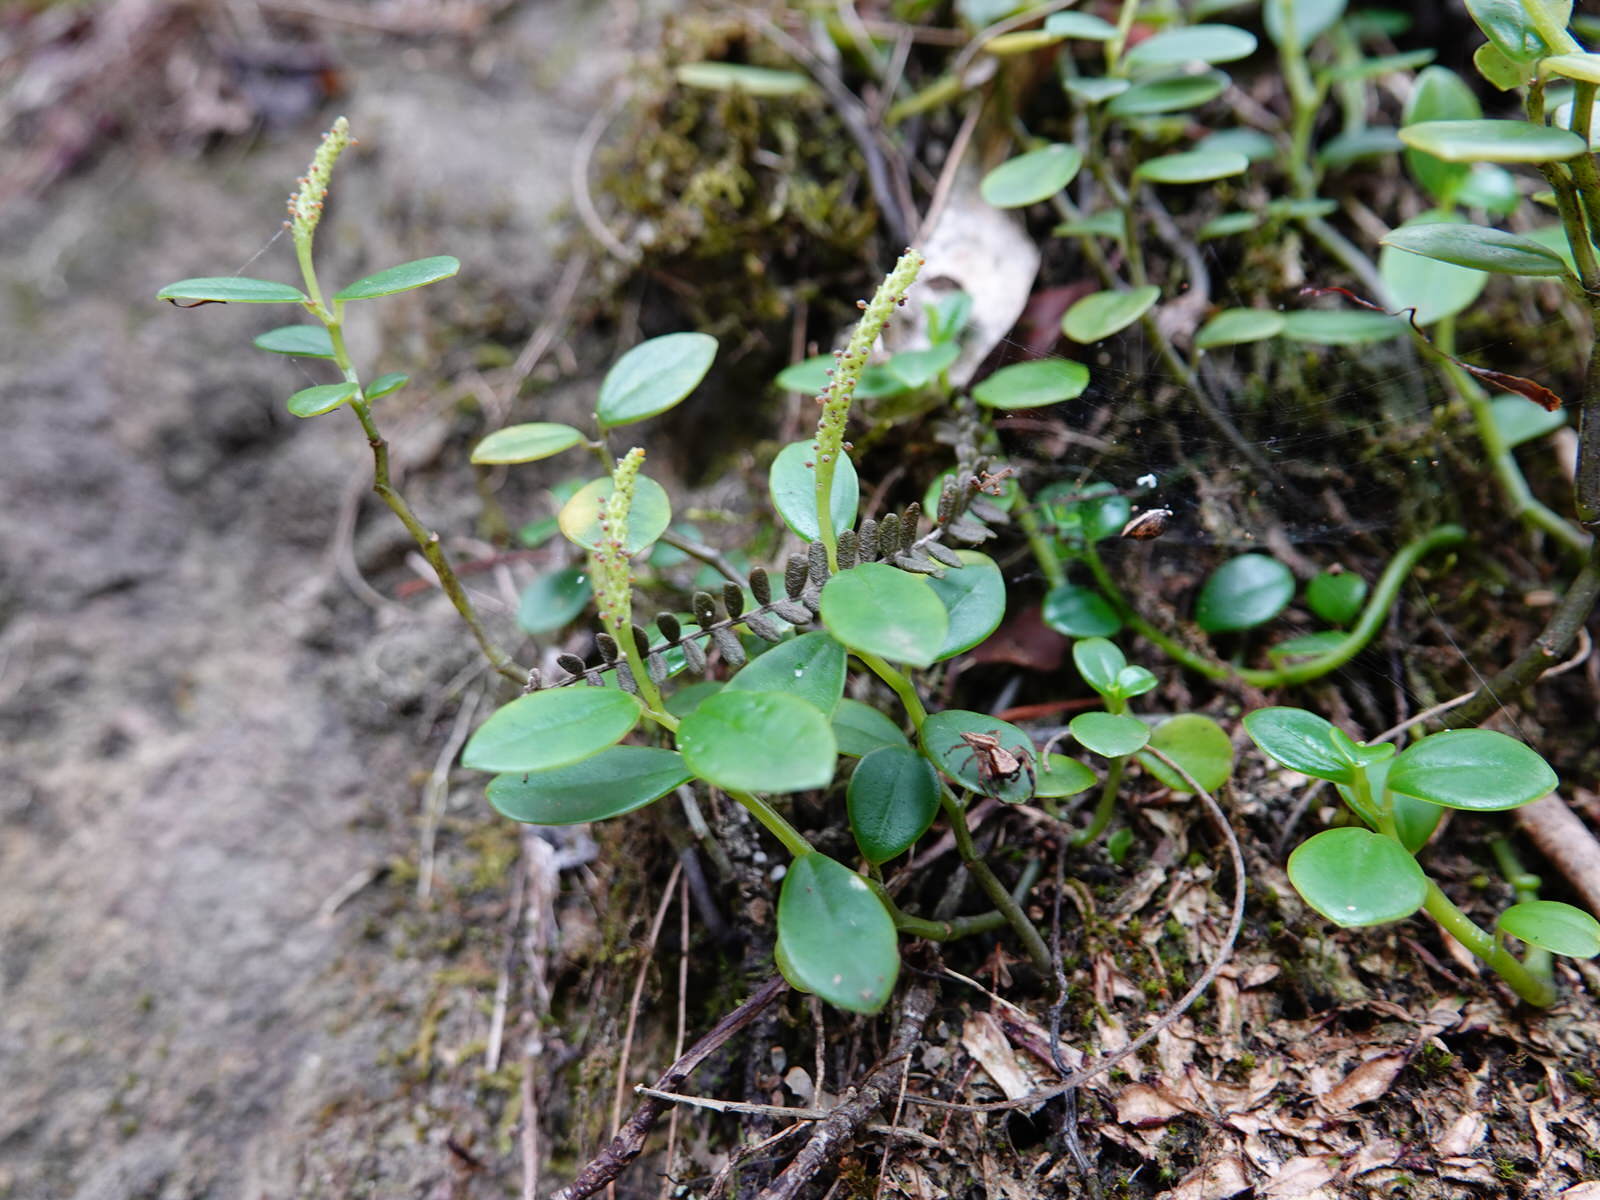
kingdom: Animalia
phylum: Arthropoda
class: Arachnida
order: Araneae
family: Salticidae
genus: Trite
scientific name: Trite auricoma
